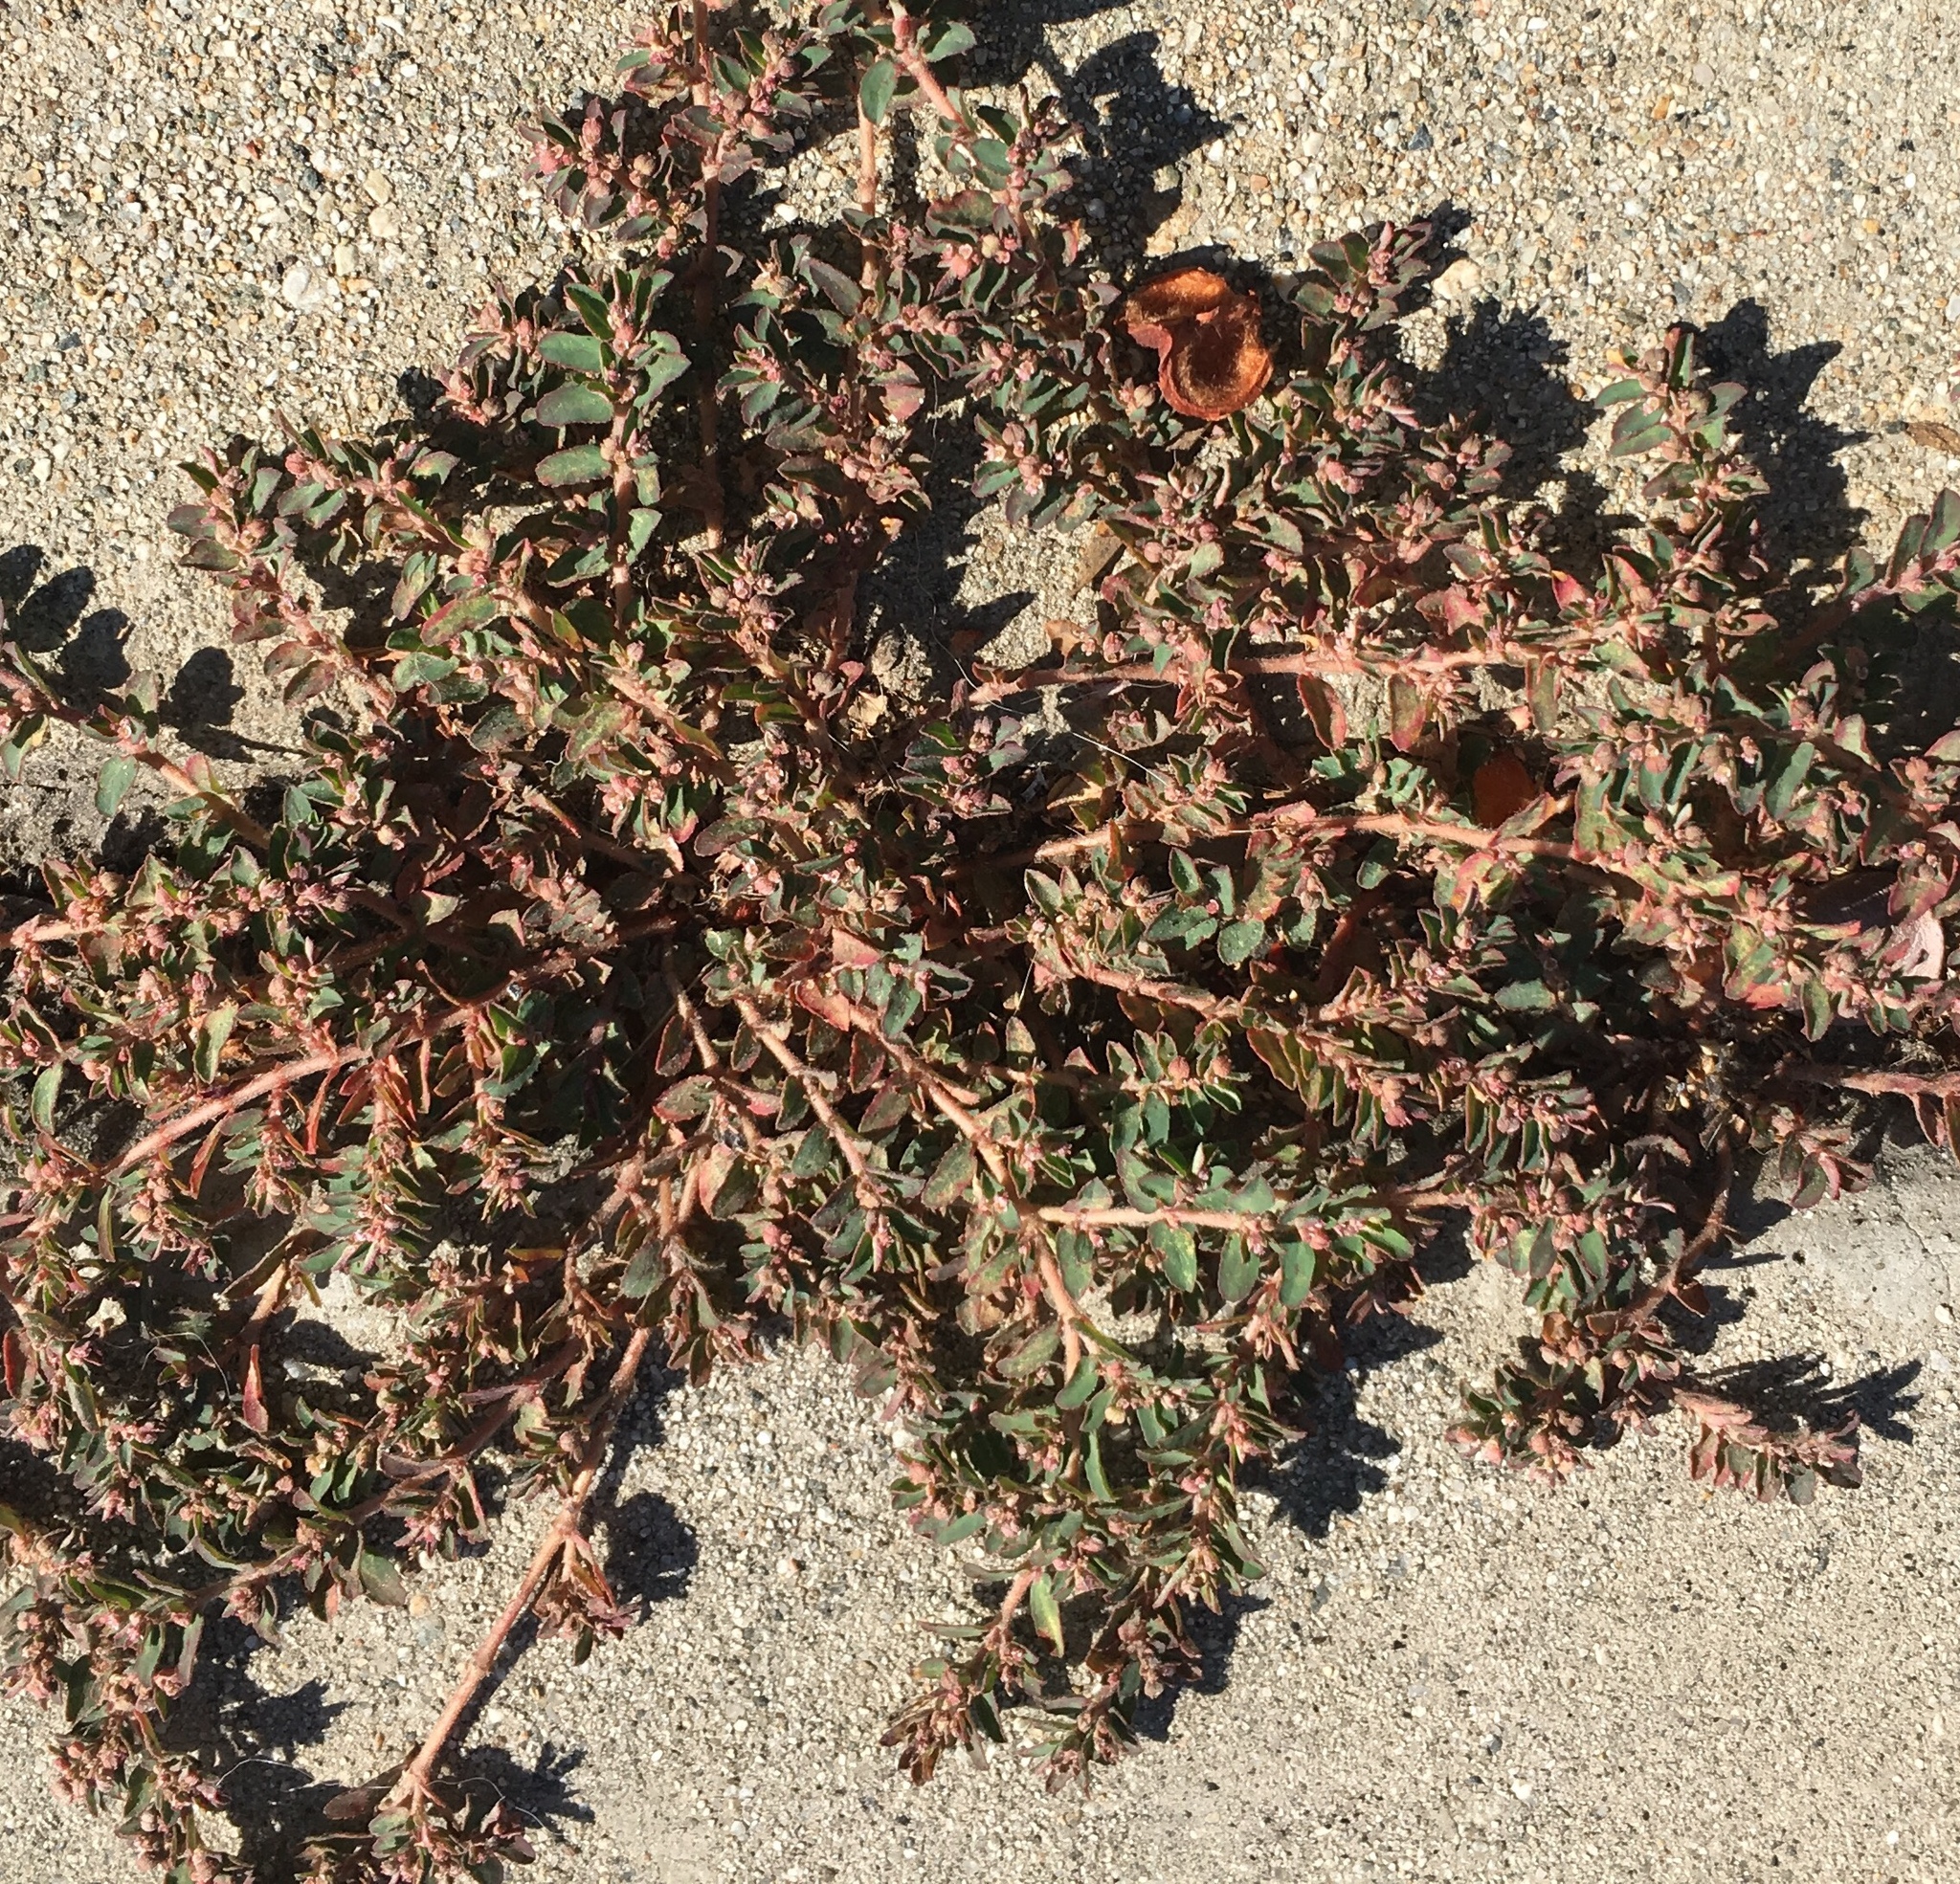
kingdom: Plantae
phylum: Tracheophyta
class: Magnoliopsida
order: Malpighiales
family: Euphorbiaceae
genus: Euphorbia
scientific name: Euphorbia maculata
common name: Spotted spurge
